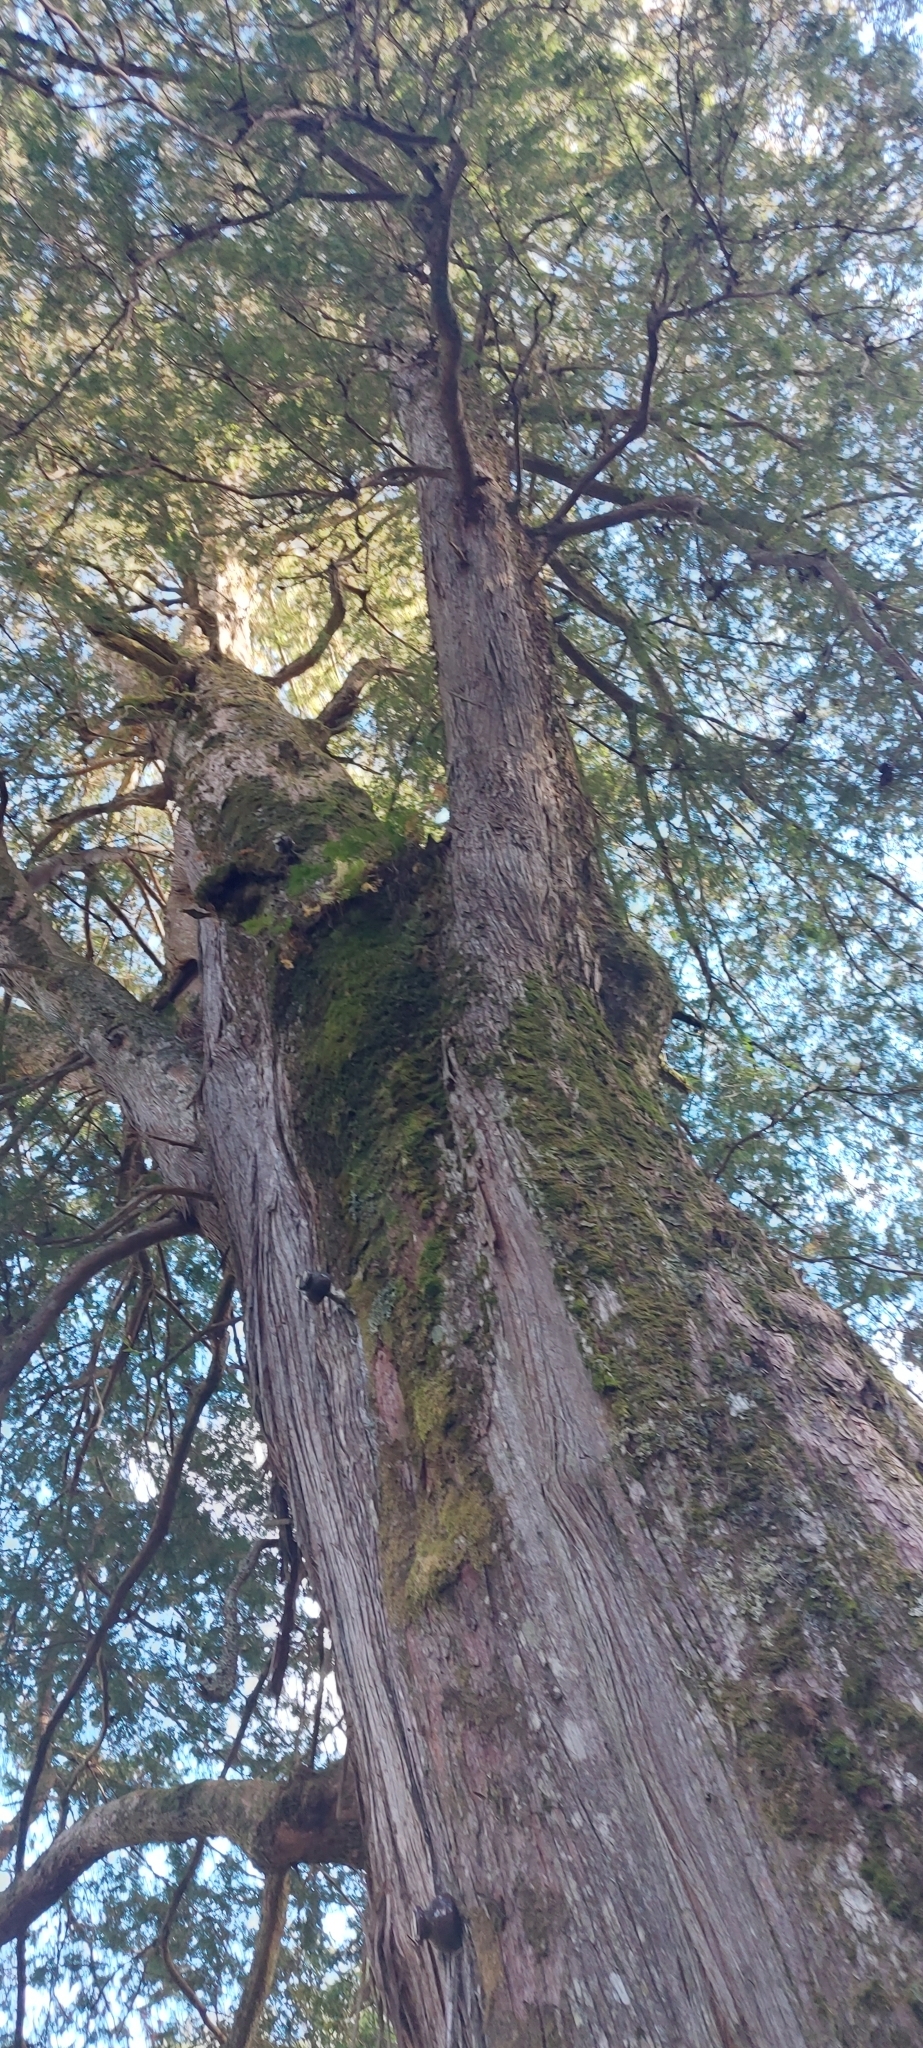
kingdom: Plantae
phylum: Tracheophyta
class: Pinopsida
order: Pinales
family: Cupressaceae
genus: Chamaecyparis
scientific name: Chamaecyparis formosensis
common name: Formosan cypress
